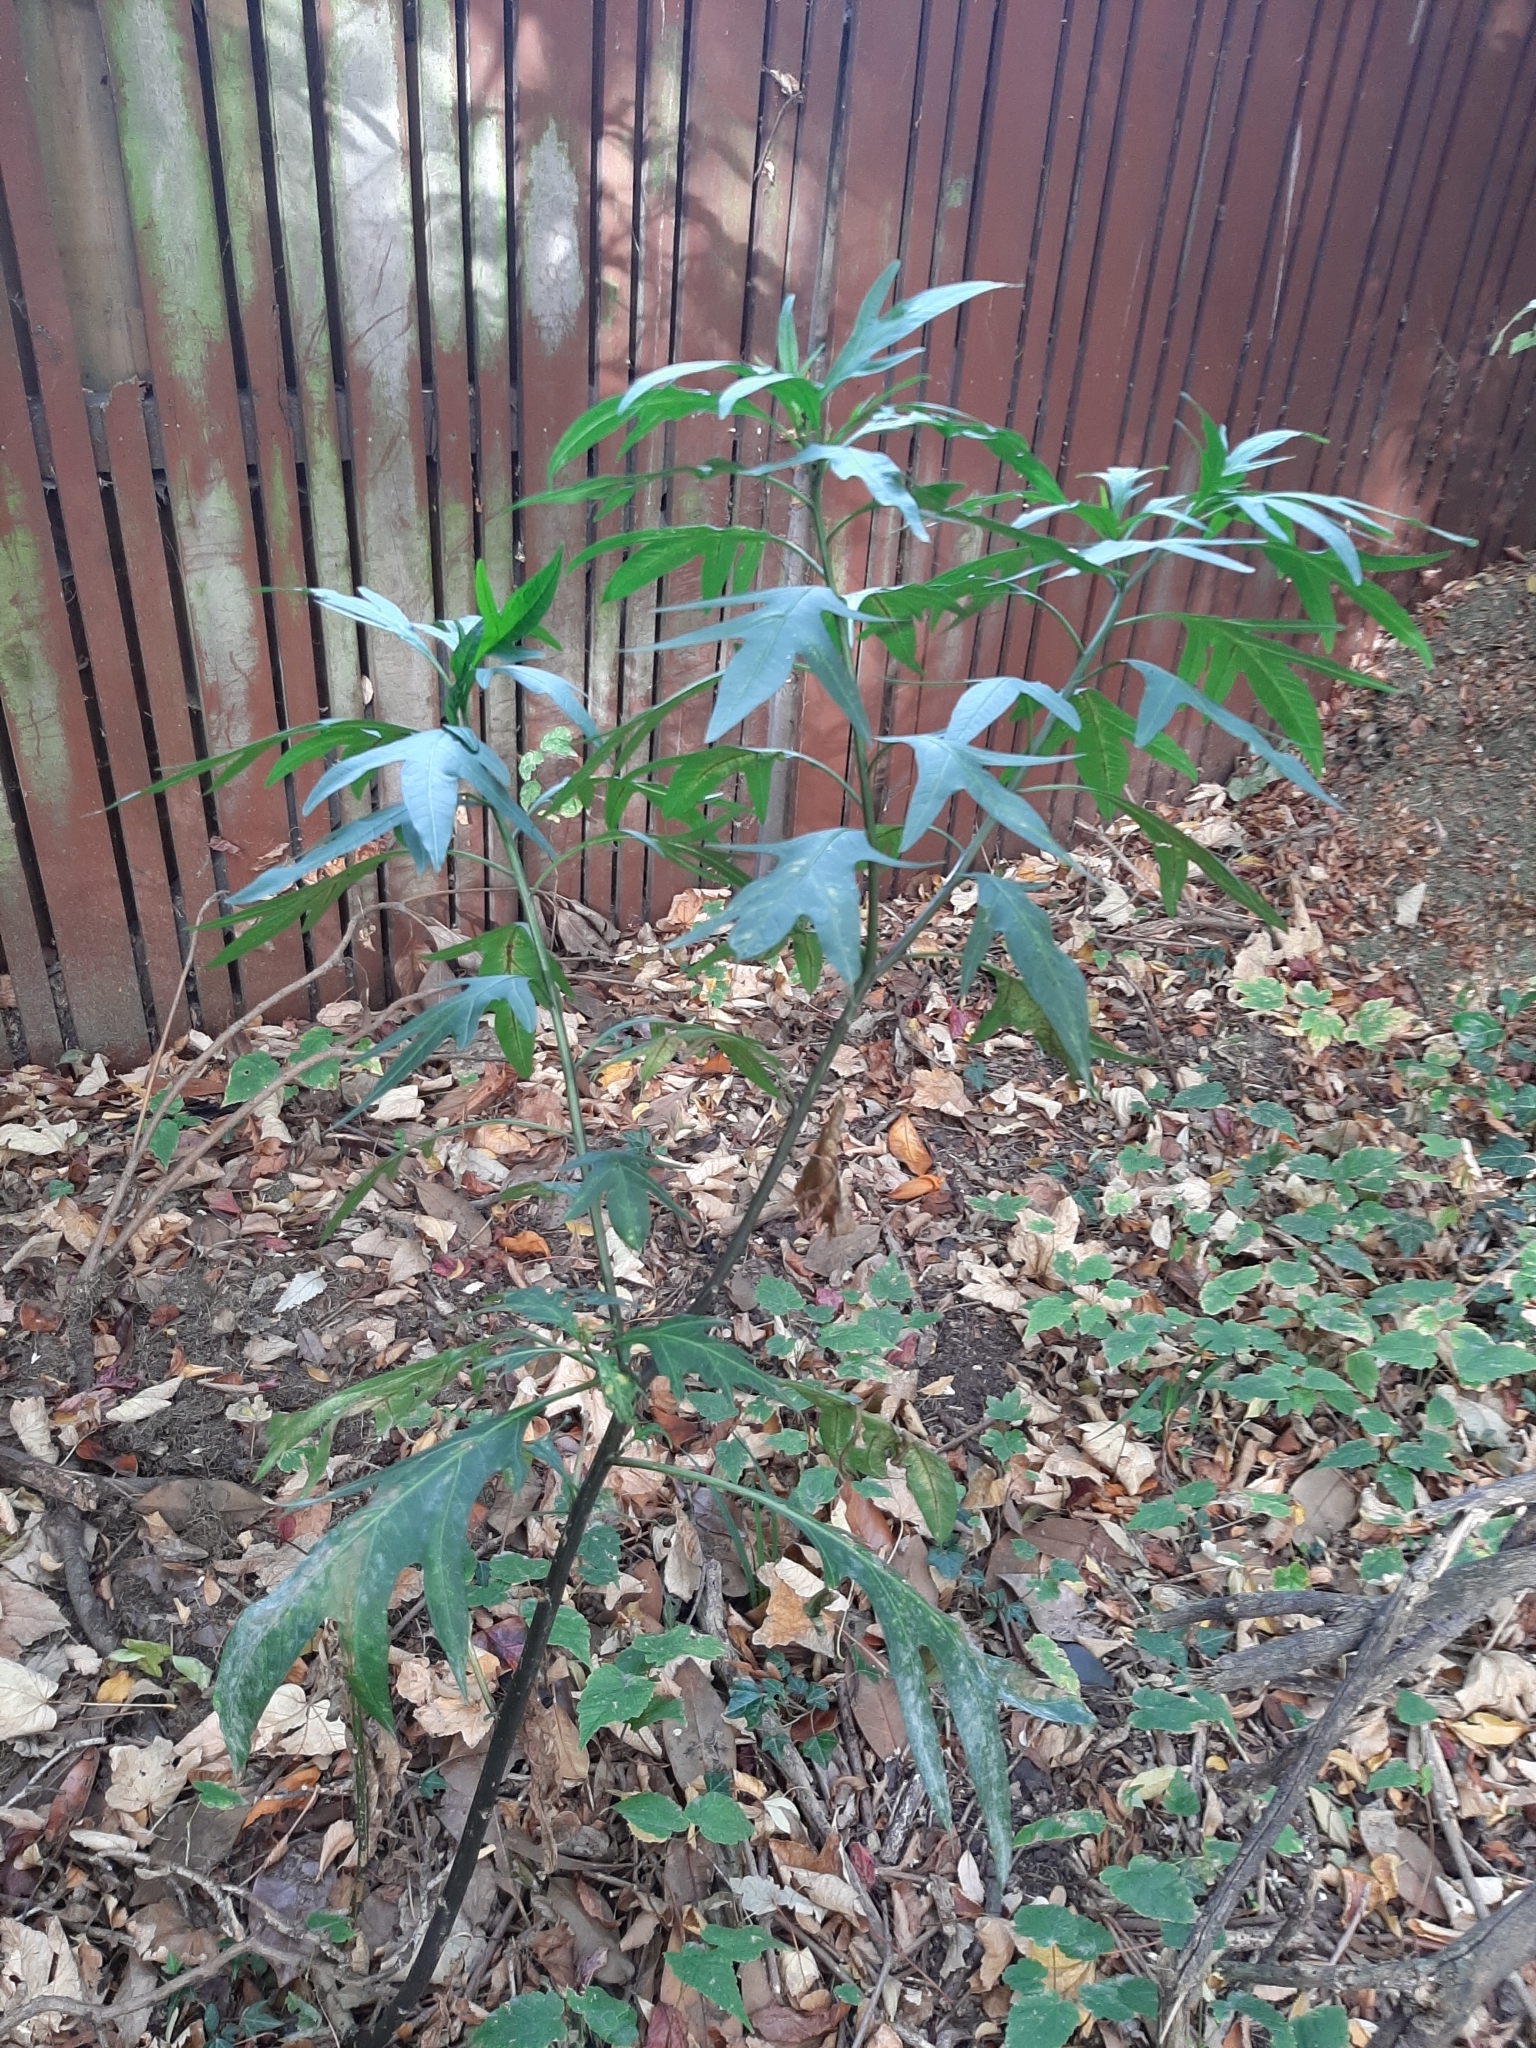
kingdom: Plantae
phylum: Tracheophyta
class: Magnoliopsida
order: Solanales
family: Solanaceae
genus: Solanum
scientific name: Solanum laciniatum
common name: Kangaroo-apple
